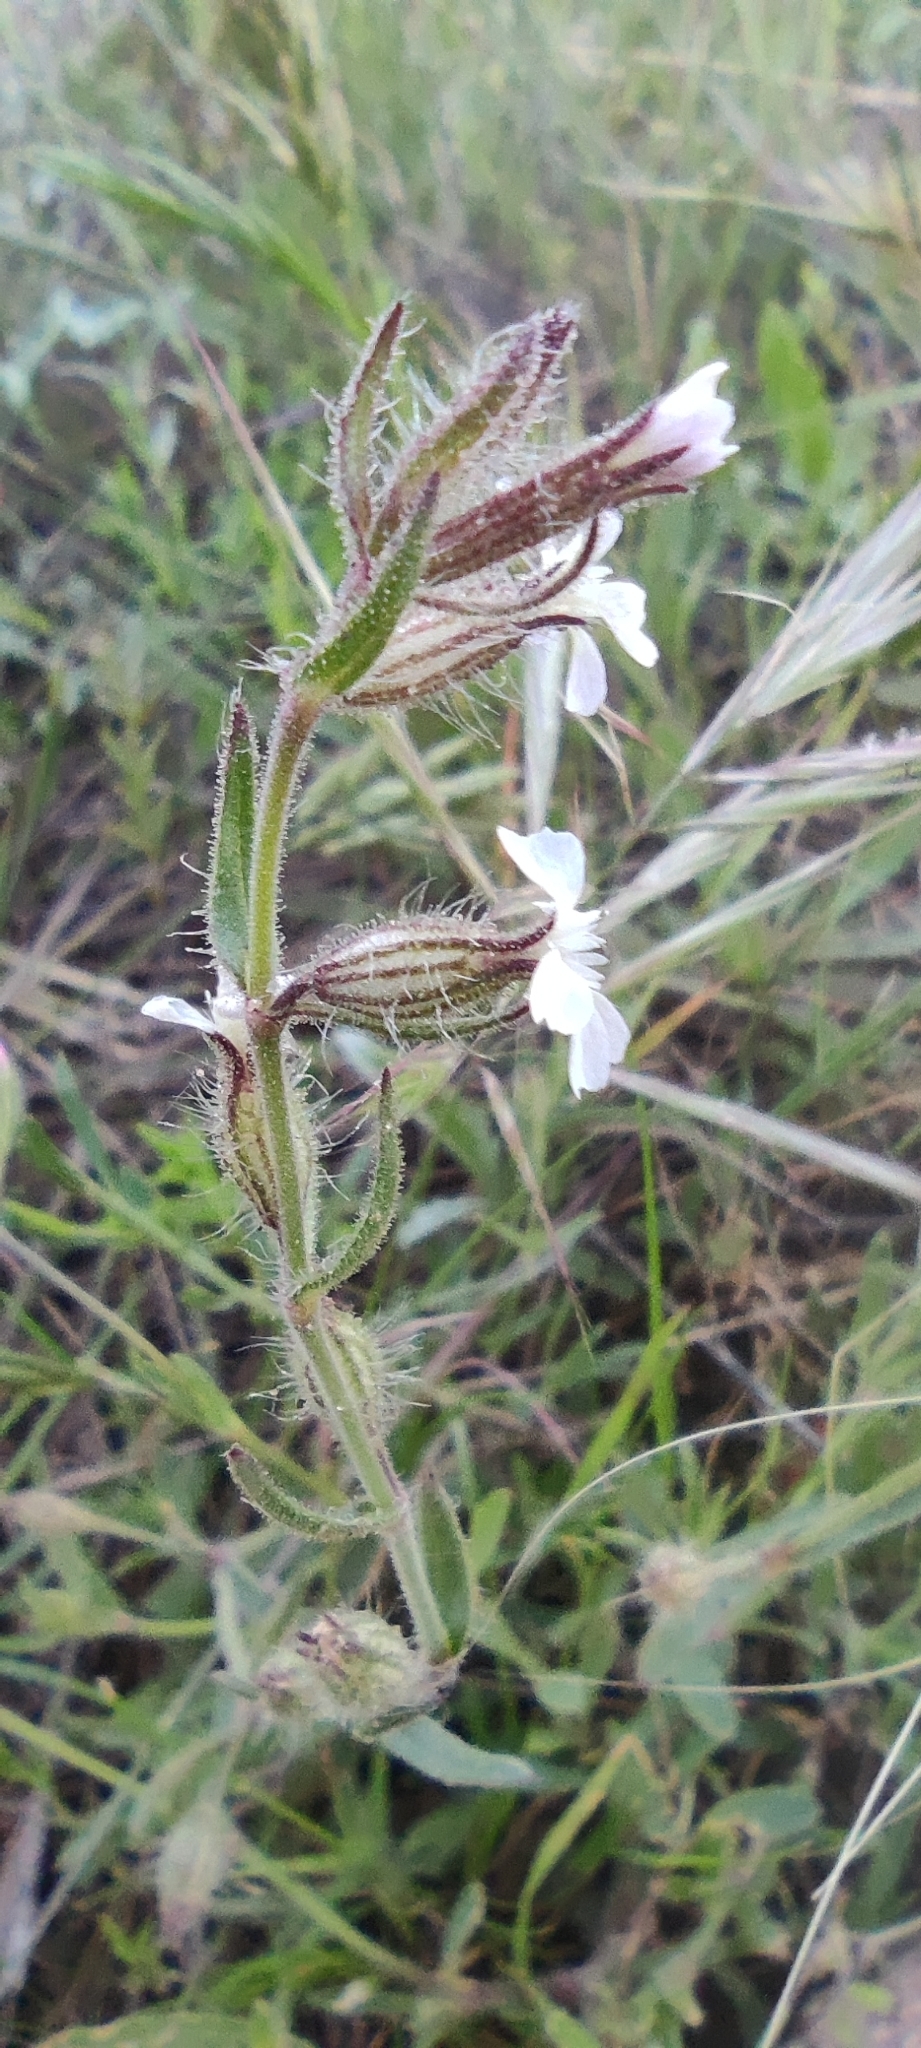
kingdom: Plantae
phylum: Tracheophyta
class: Magnoliopsida
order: Caryophyllales
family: Caryophyllaceae
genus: Silene
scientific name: Silene gallica
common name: Small-flowered catchfly
